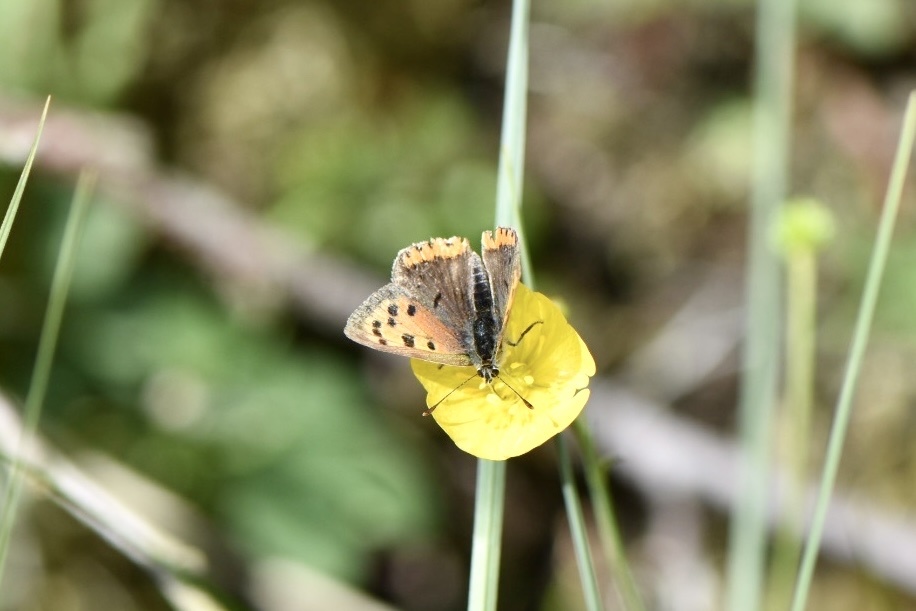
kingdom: Animalia
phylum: Arthropoda
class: Insecta
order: Lepidoptera
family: Lycaenidae
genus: Lycaena
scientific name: Lycaena phlaeas
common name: Small copper
